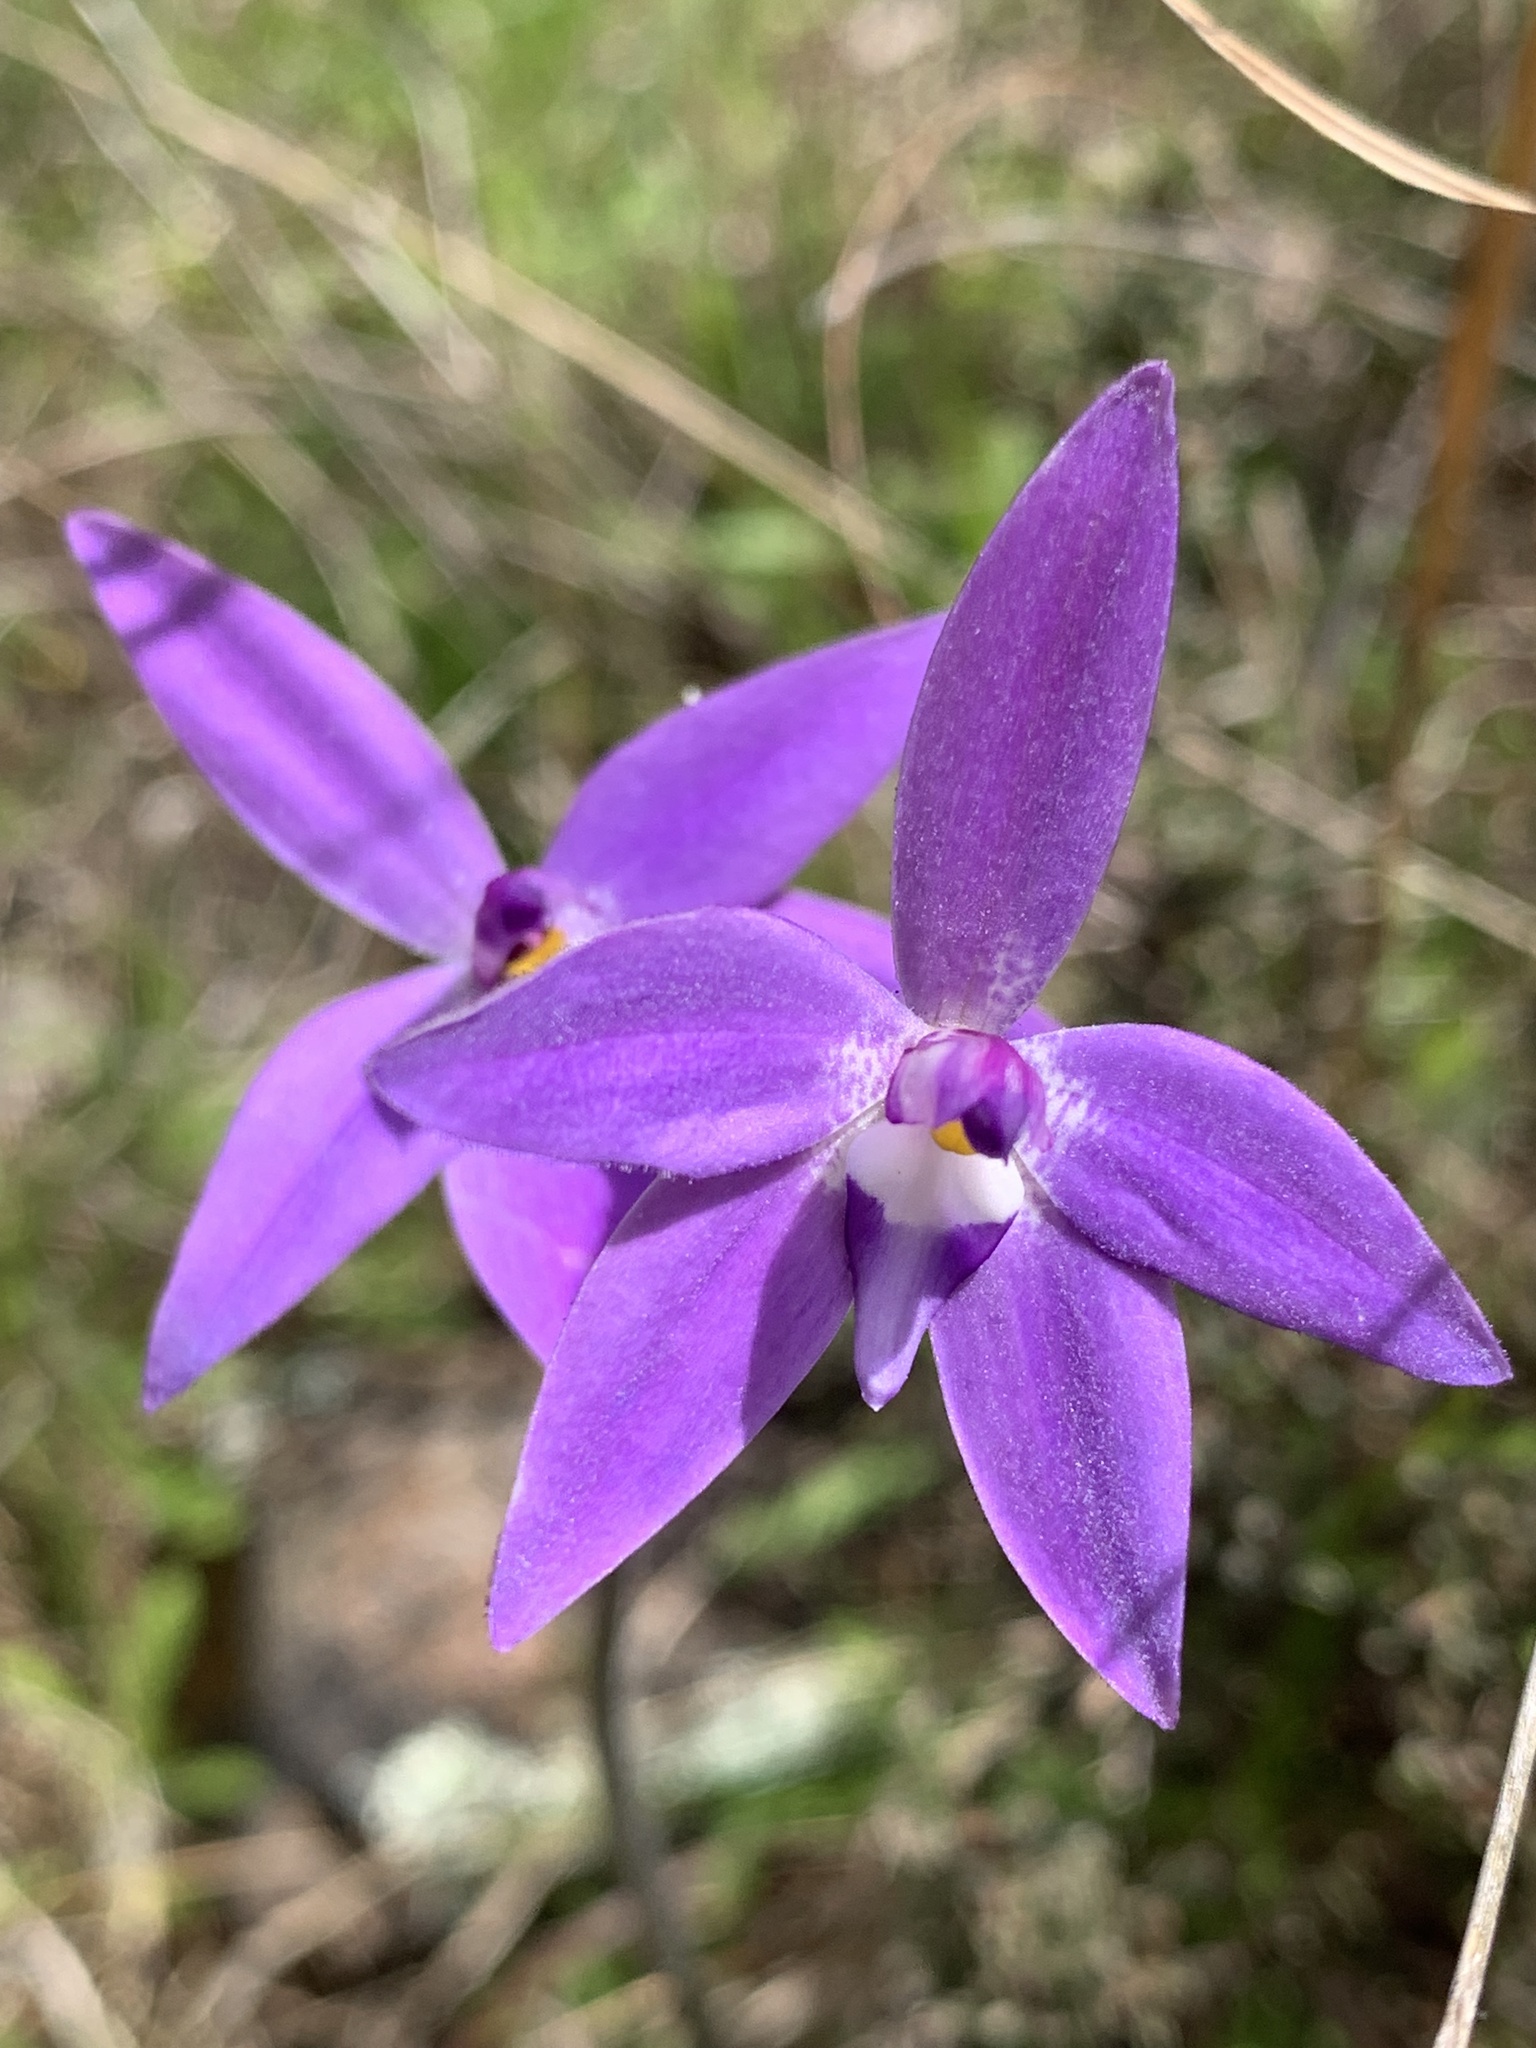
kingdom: Plantae
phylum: Tracheophyta
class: Liliopsida
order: Asparagales
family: Orchidaceae
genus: Caladenia
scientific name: Caladenia major
